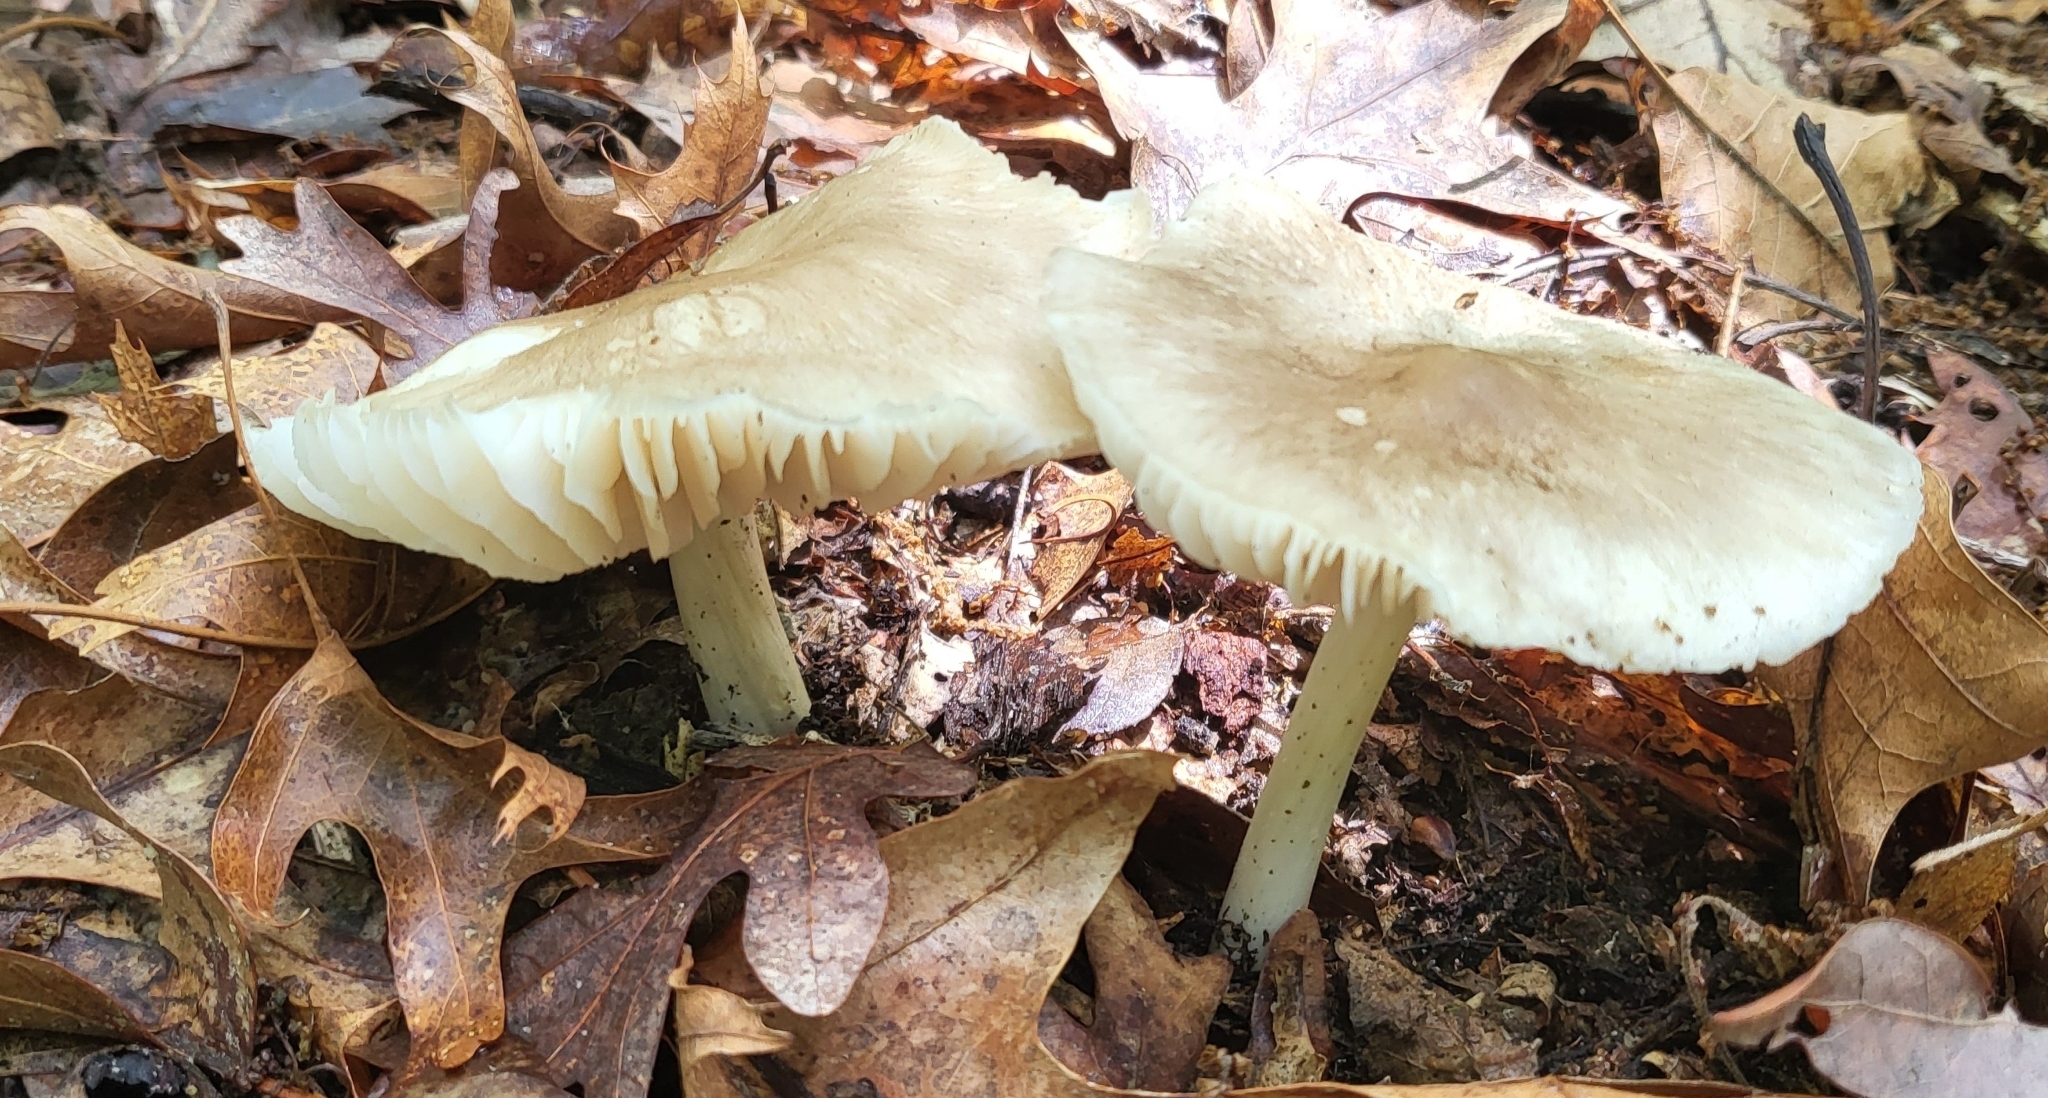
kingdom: Fungi
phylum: Basidiomycota
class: Agaricomycetes
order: Agaricales
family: Tricholomataceae
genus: Megacollybia
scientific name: Megacollybia rodmanii
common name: Eastern american platterful mushroom
